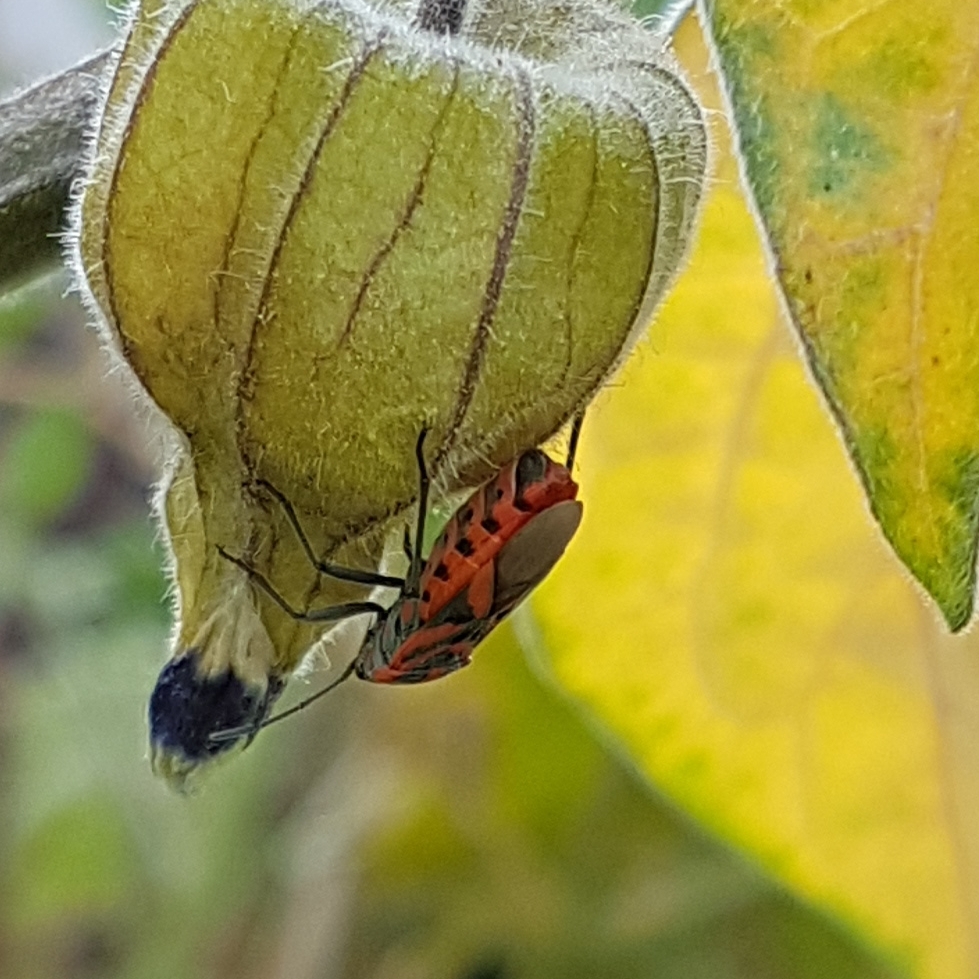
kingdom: Animalia
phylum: Arthropoda
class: Insecta
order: Hemiptera
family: Lygaeidae
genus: Spilostethus
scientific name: Spilostethus furcula
